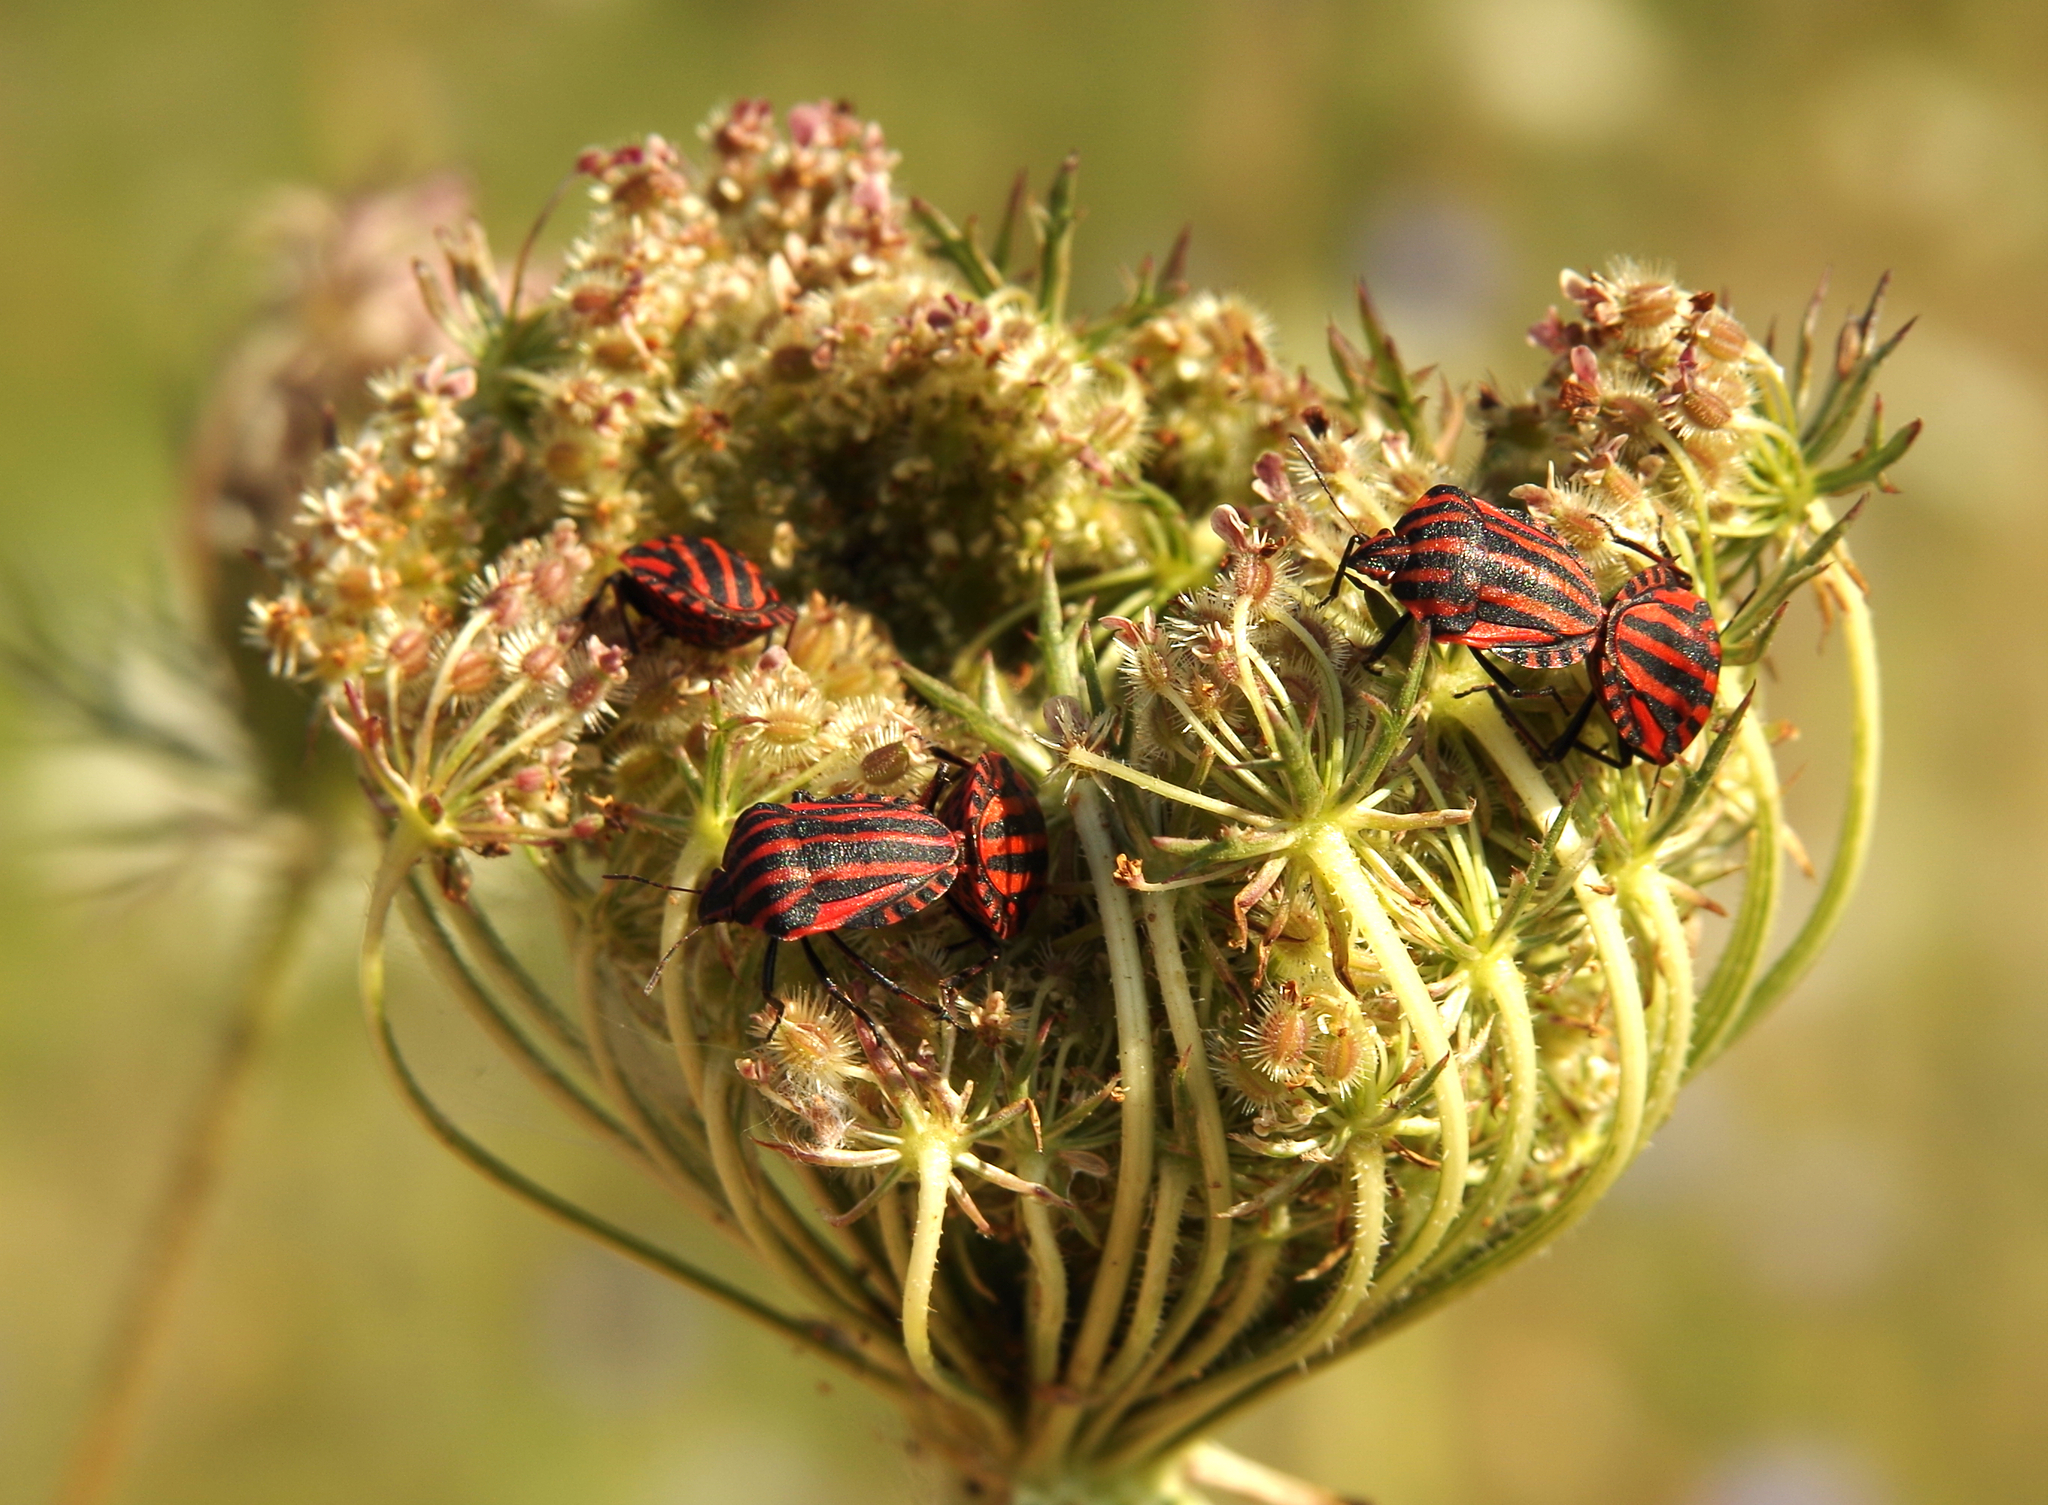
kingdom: Animalia
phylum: Arthropoda
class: Insecta
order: Hemiptera
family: Pentatomidae
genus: Graphosoma
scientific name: Graphosoma italicum
